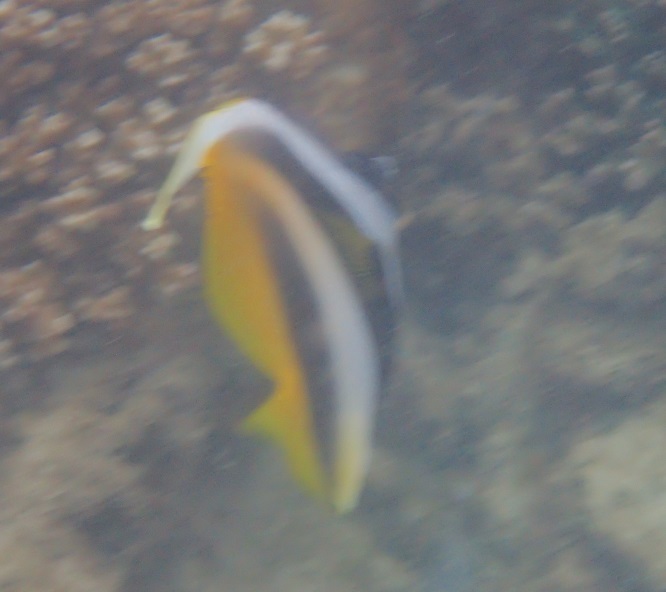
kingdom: Animalia
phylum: Chordata
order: Perciformes
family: Chaetodontidae
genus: Heniochus
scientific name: Heniochus monoceros
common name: Masked bannerfish
